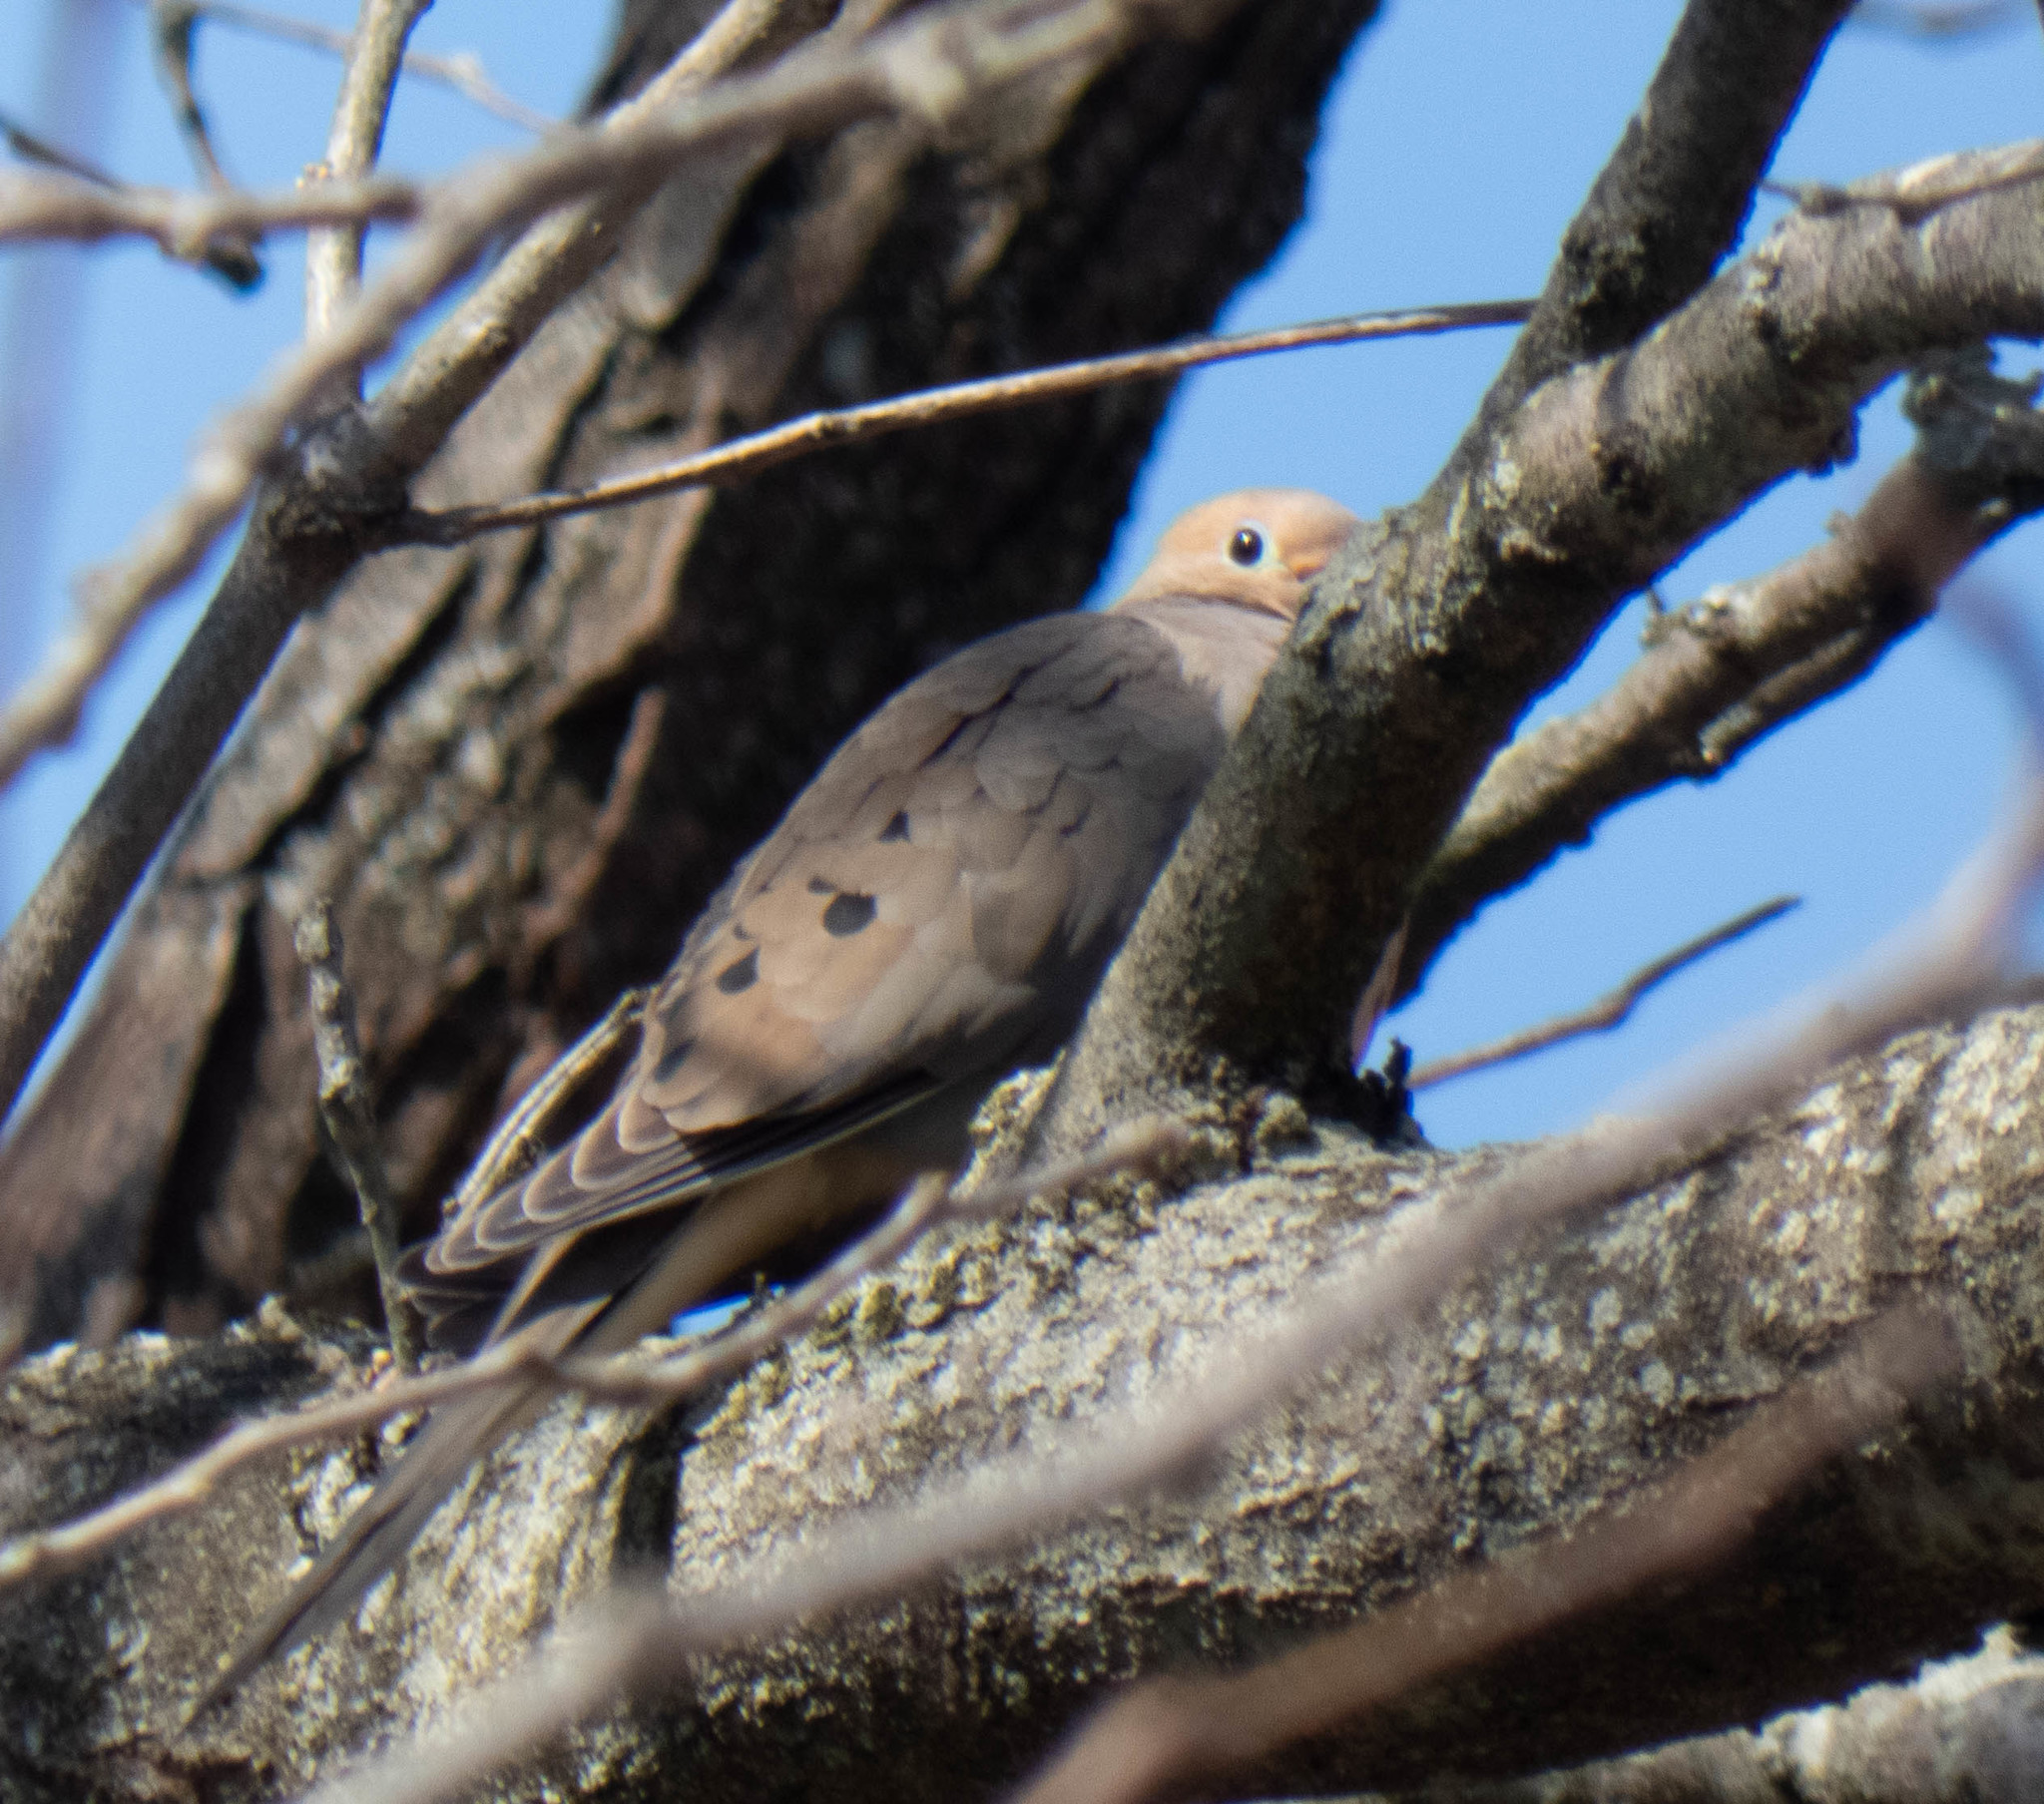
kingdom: Animalia
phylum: Chordata
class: Aves
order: Columbiformes
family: Columbidae
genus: Zenaida
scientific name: Zenaida macroura
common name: Mourning dove
